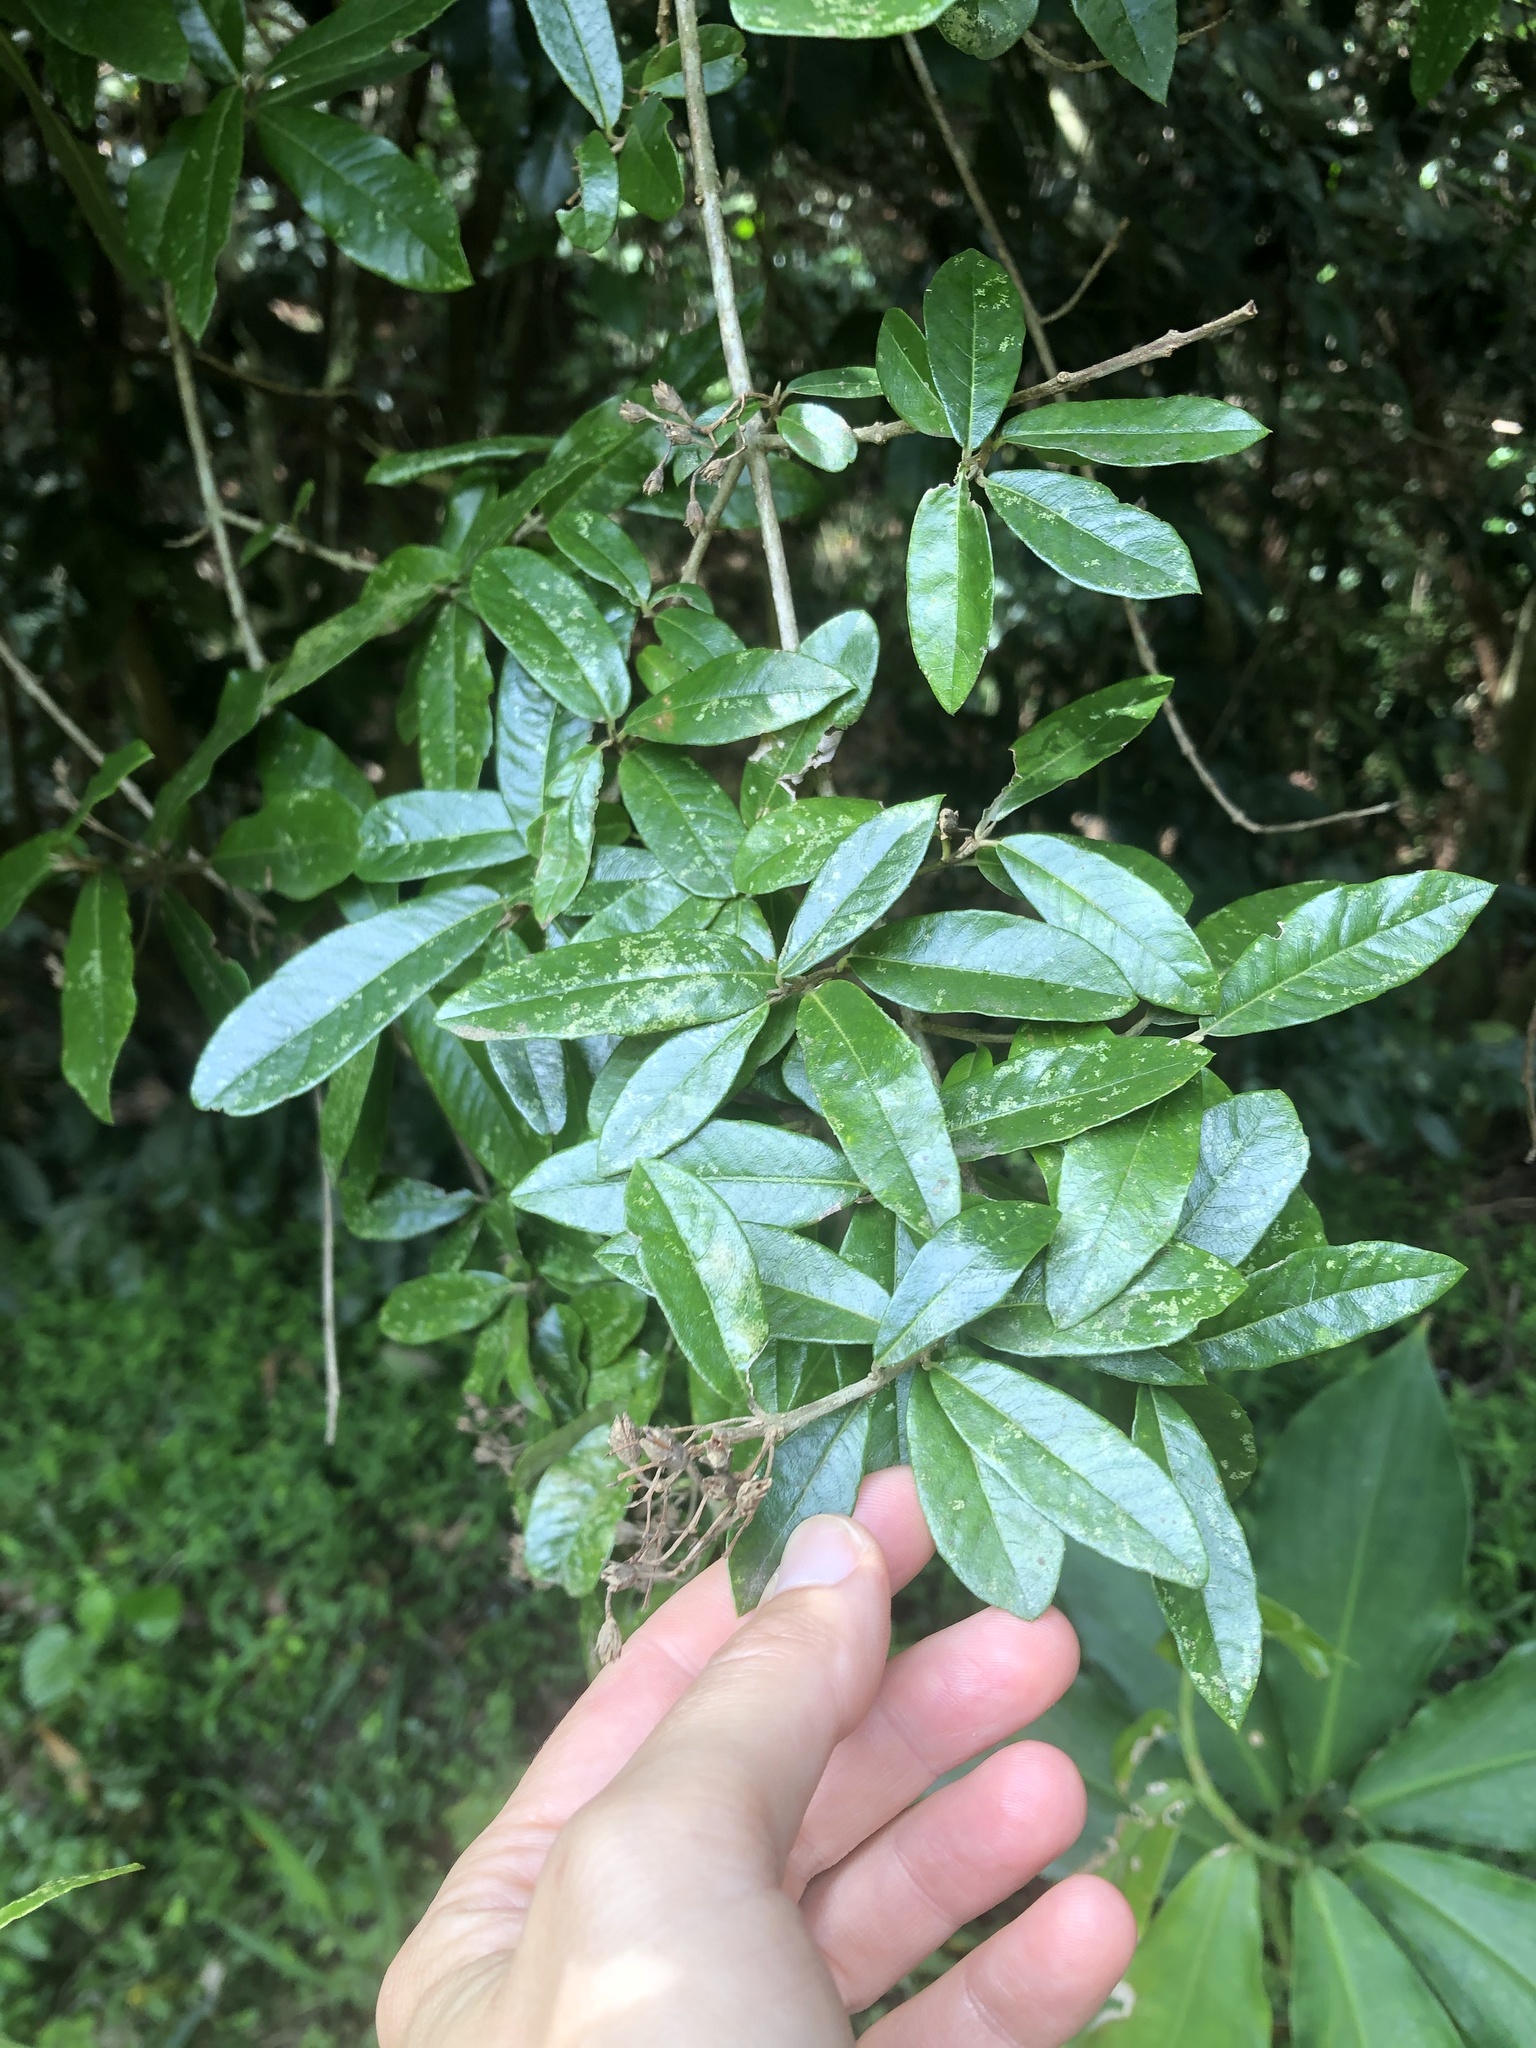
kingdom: Plantae
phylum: Tracheophyta
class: Magnoliopsida
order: Lamiales
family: Stilbaceae
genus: Anastrabe
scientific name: Anastrabe integerrima
